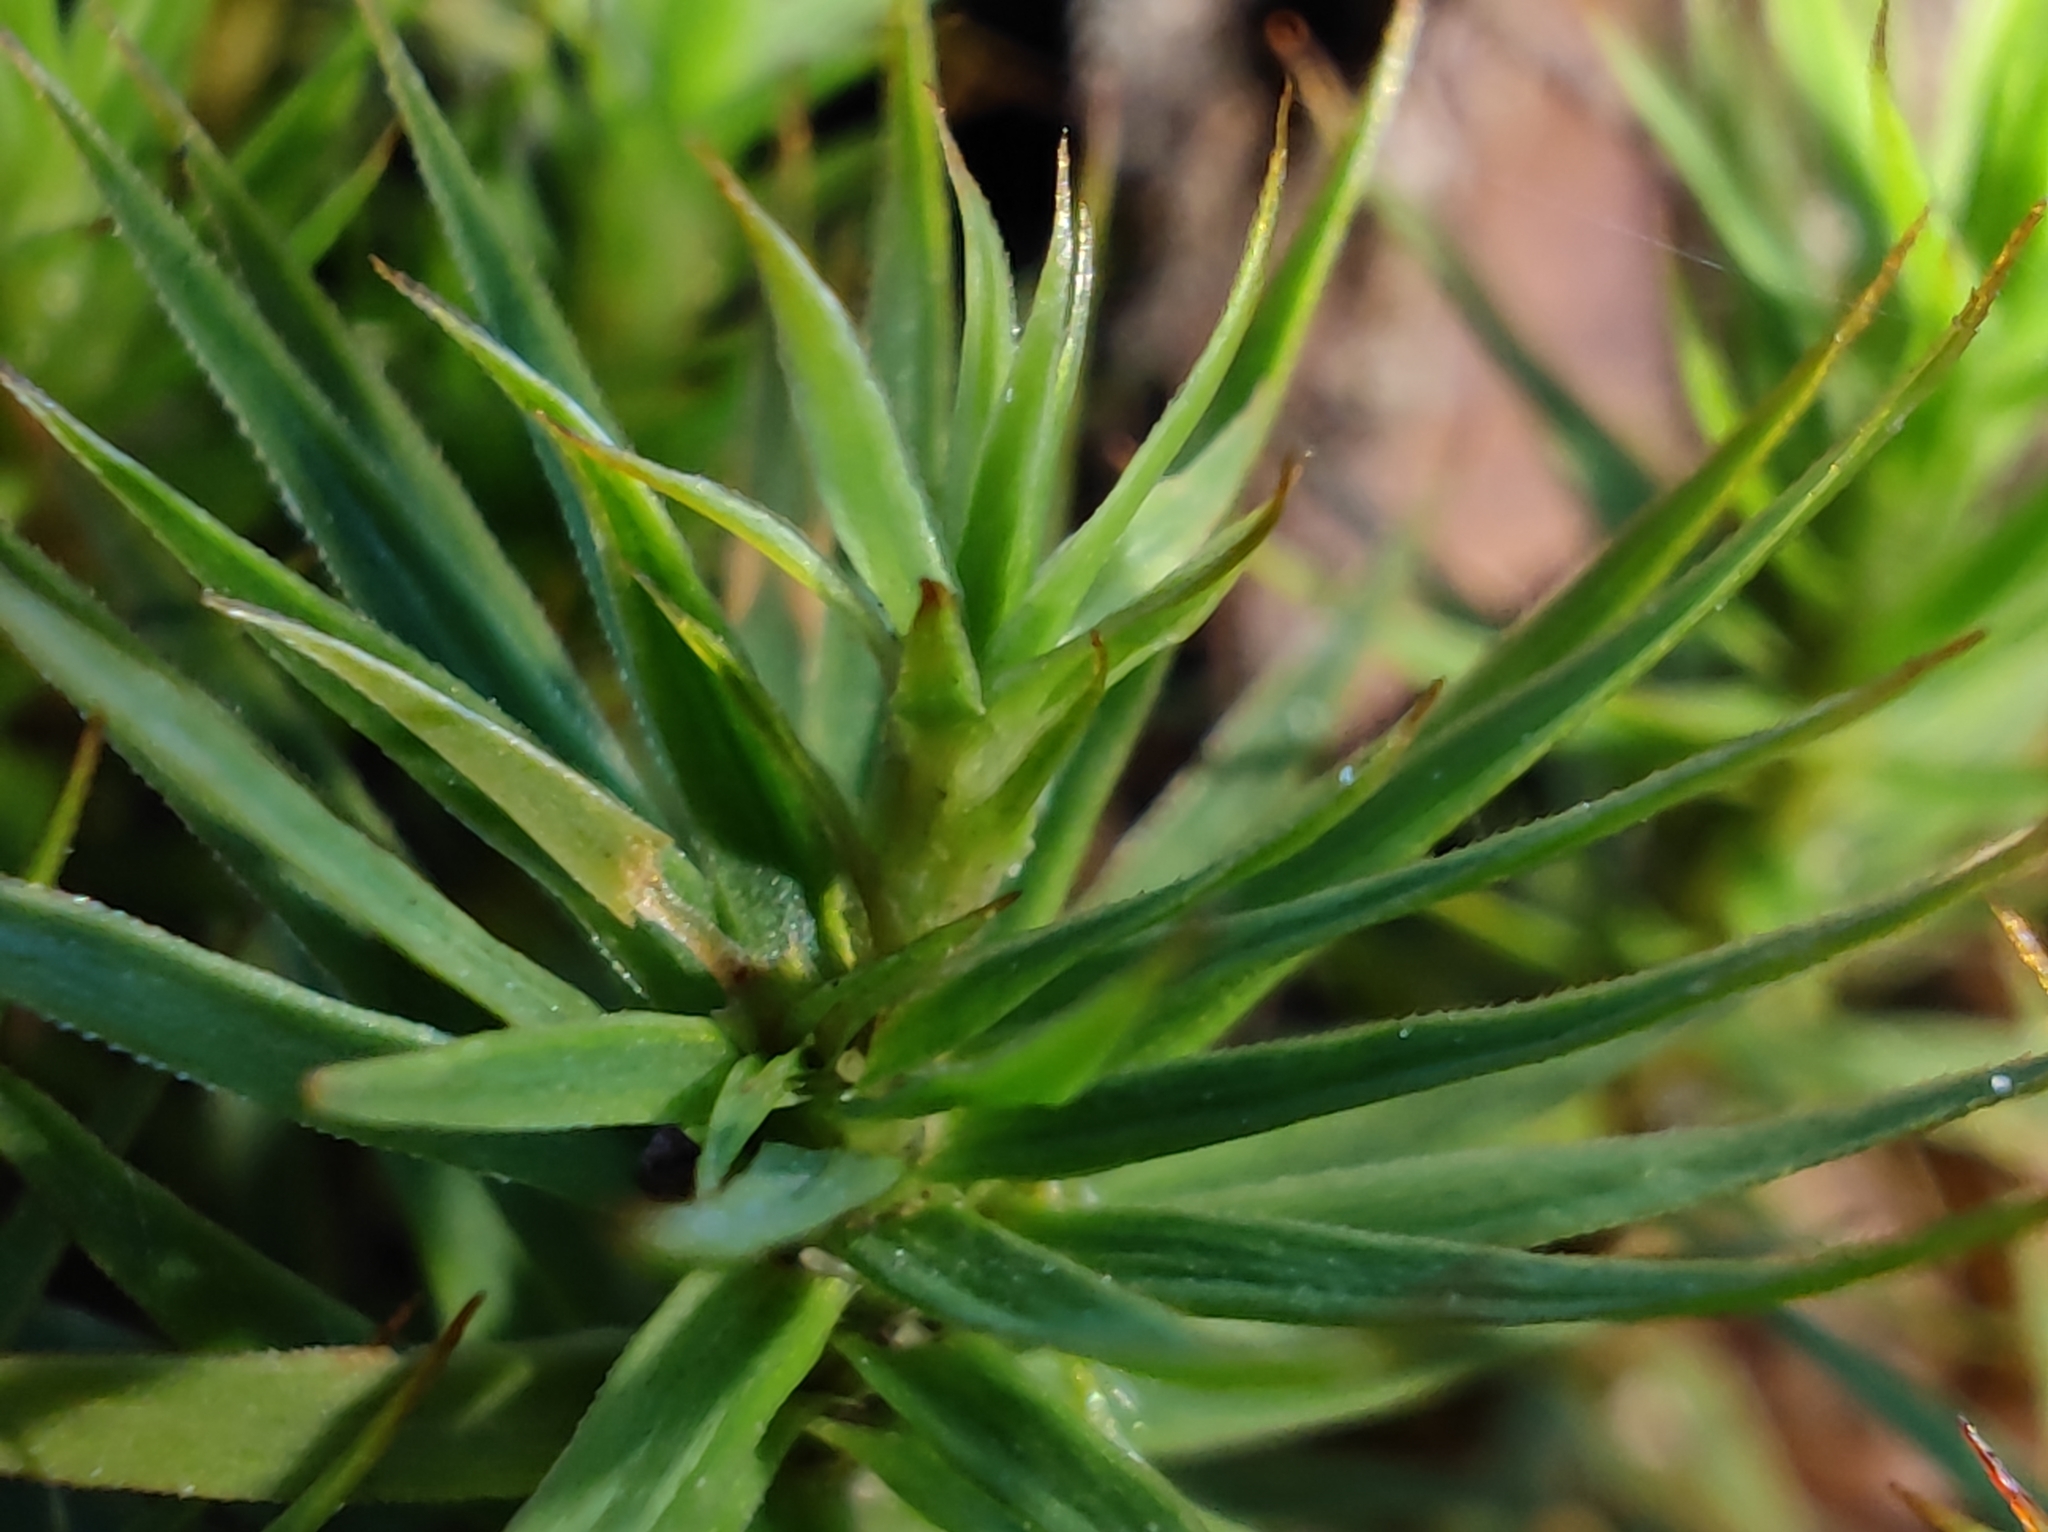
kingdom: Plantae
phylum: Bryophyta
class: Polytrichopsida
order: Polytrichales
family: Polytrichaceae
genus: Polytrichum
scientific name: Polytrichum formosum
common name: Bank haircap moss
